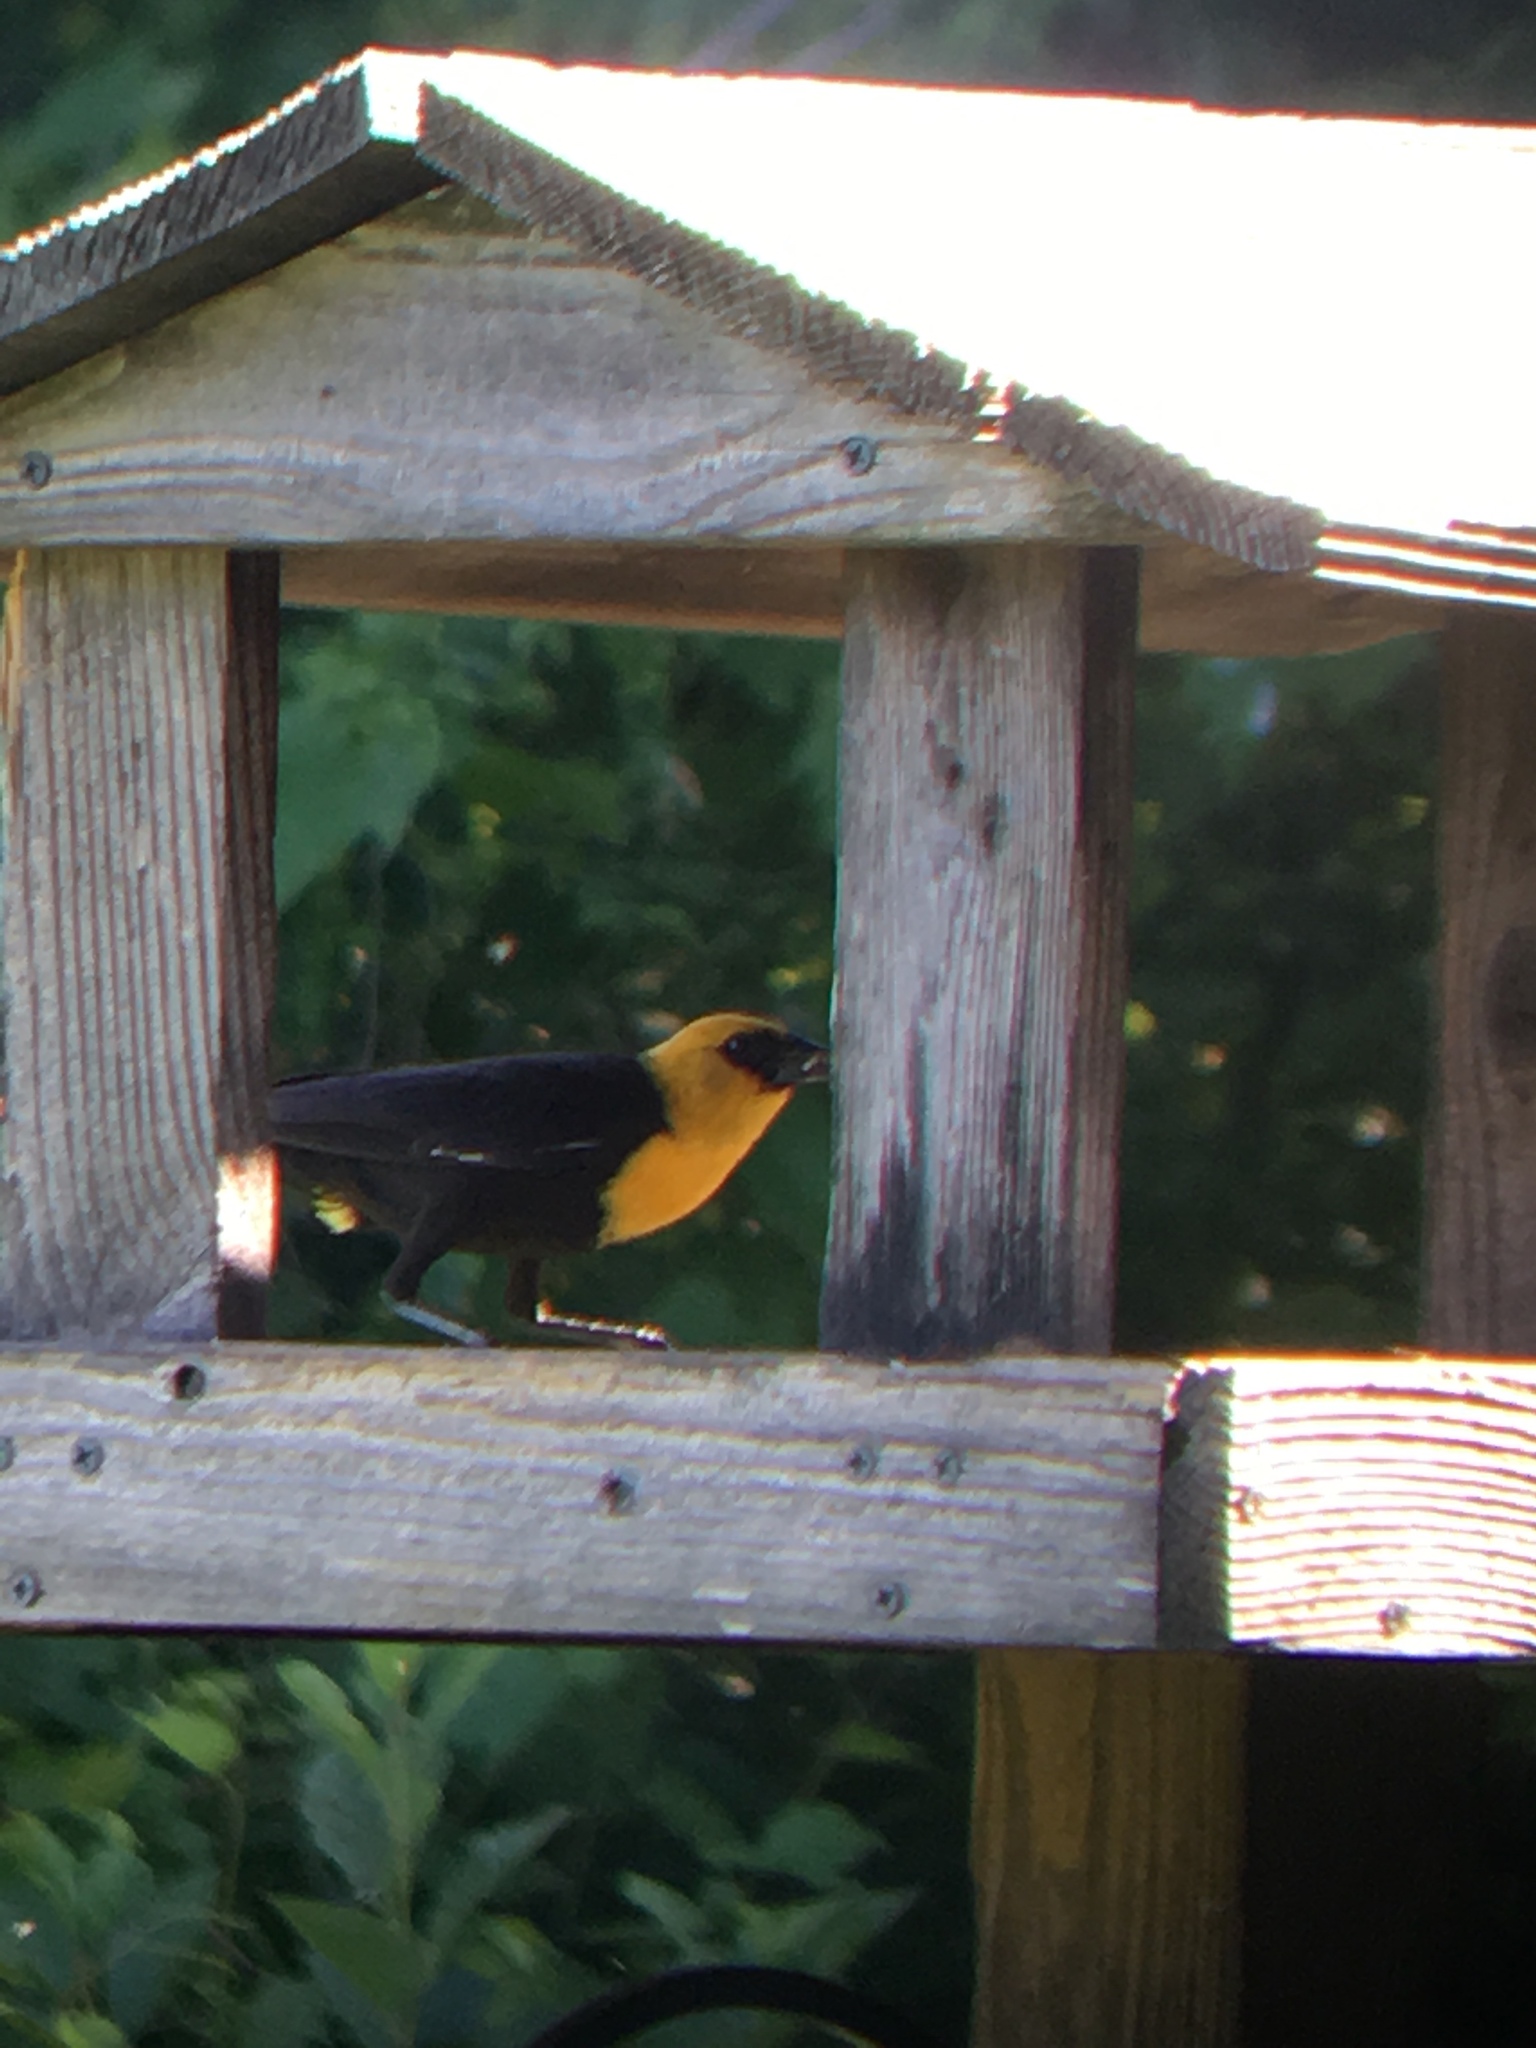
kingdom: Animalia
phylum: Chordata
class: Aves
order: Passeriformes
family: Icteridae
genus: Xanthocephalus
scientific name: Xanthocephalus xanthocephalus
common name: Yellow-headed blackbird
